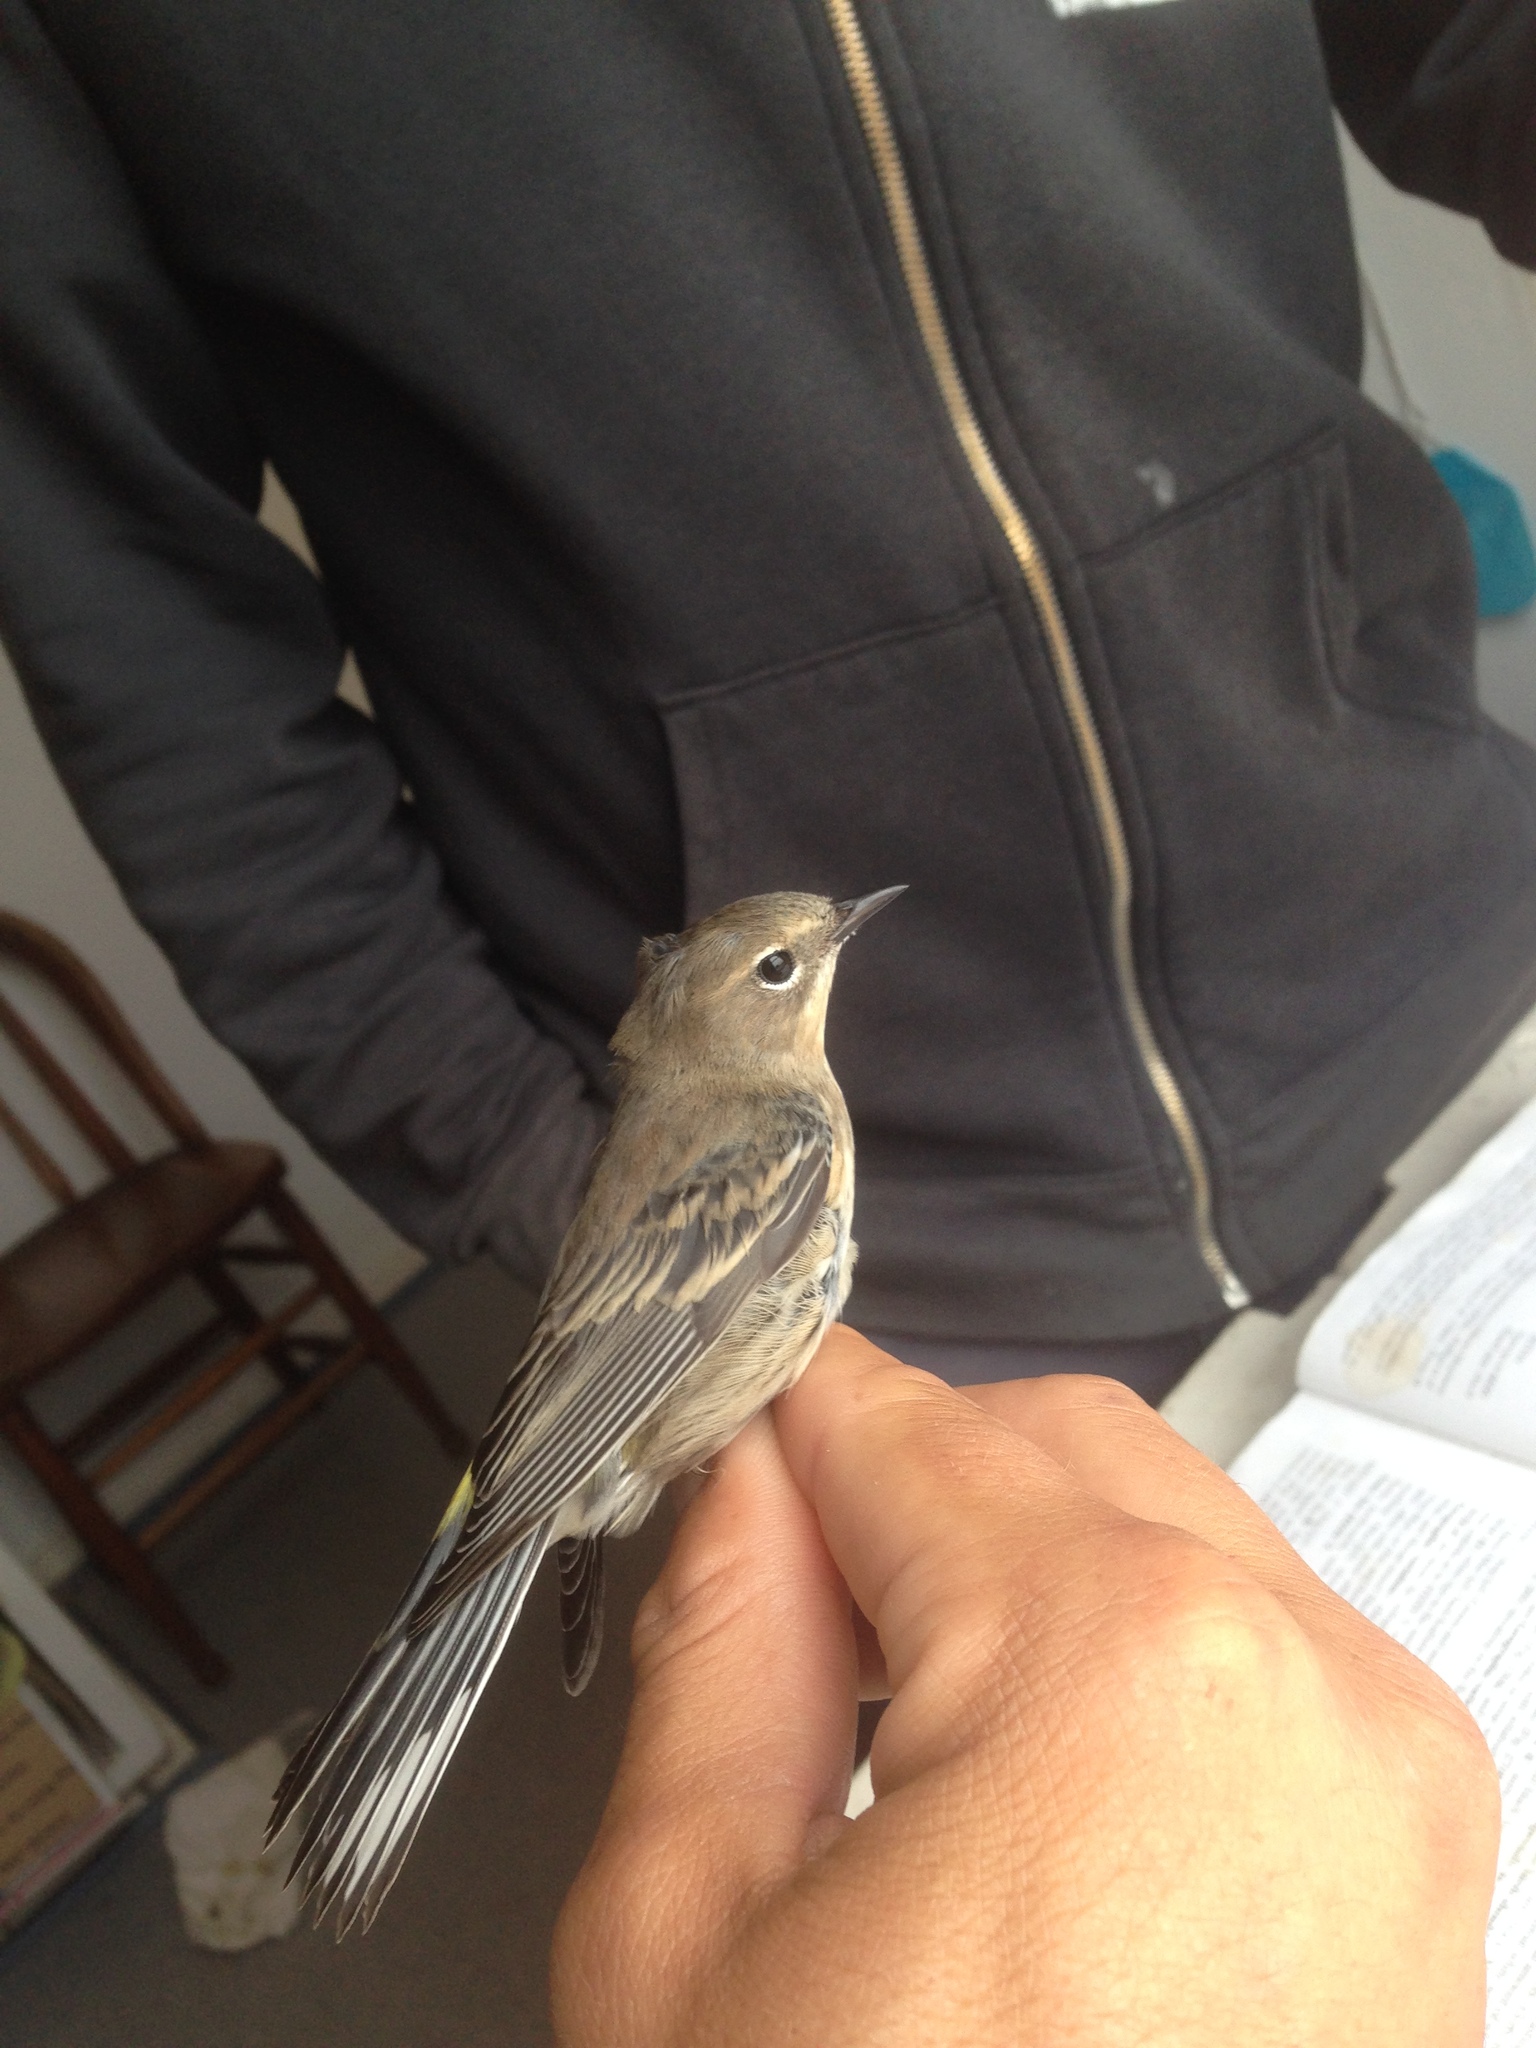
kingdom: Animalia
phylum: Chordata
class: Aves
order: Passeriformes
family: Parulidae
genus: Setophaga
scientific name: Setophaga coronata
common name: Myrtle warbler
